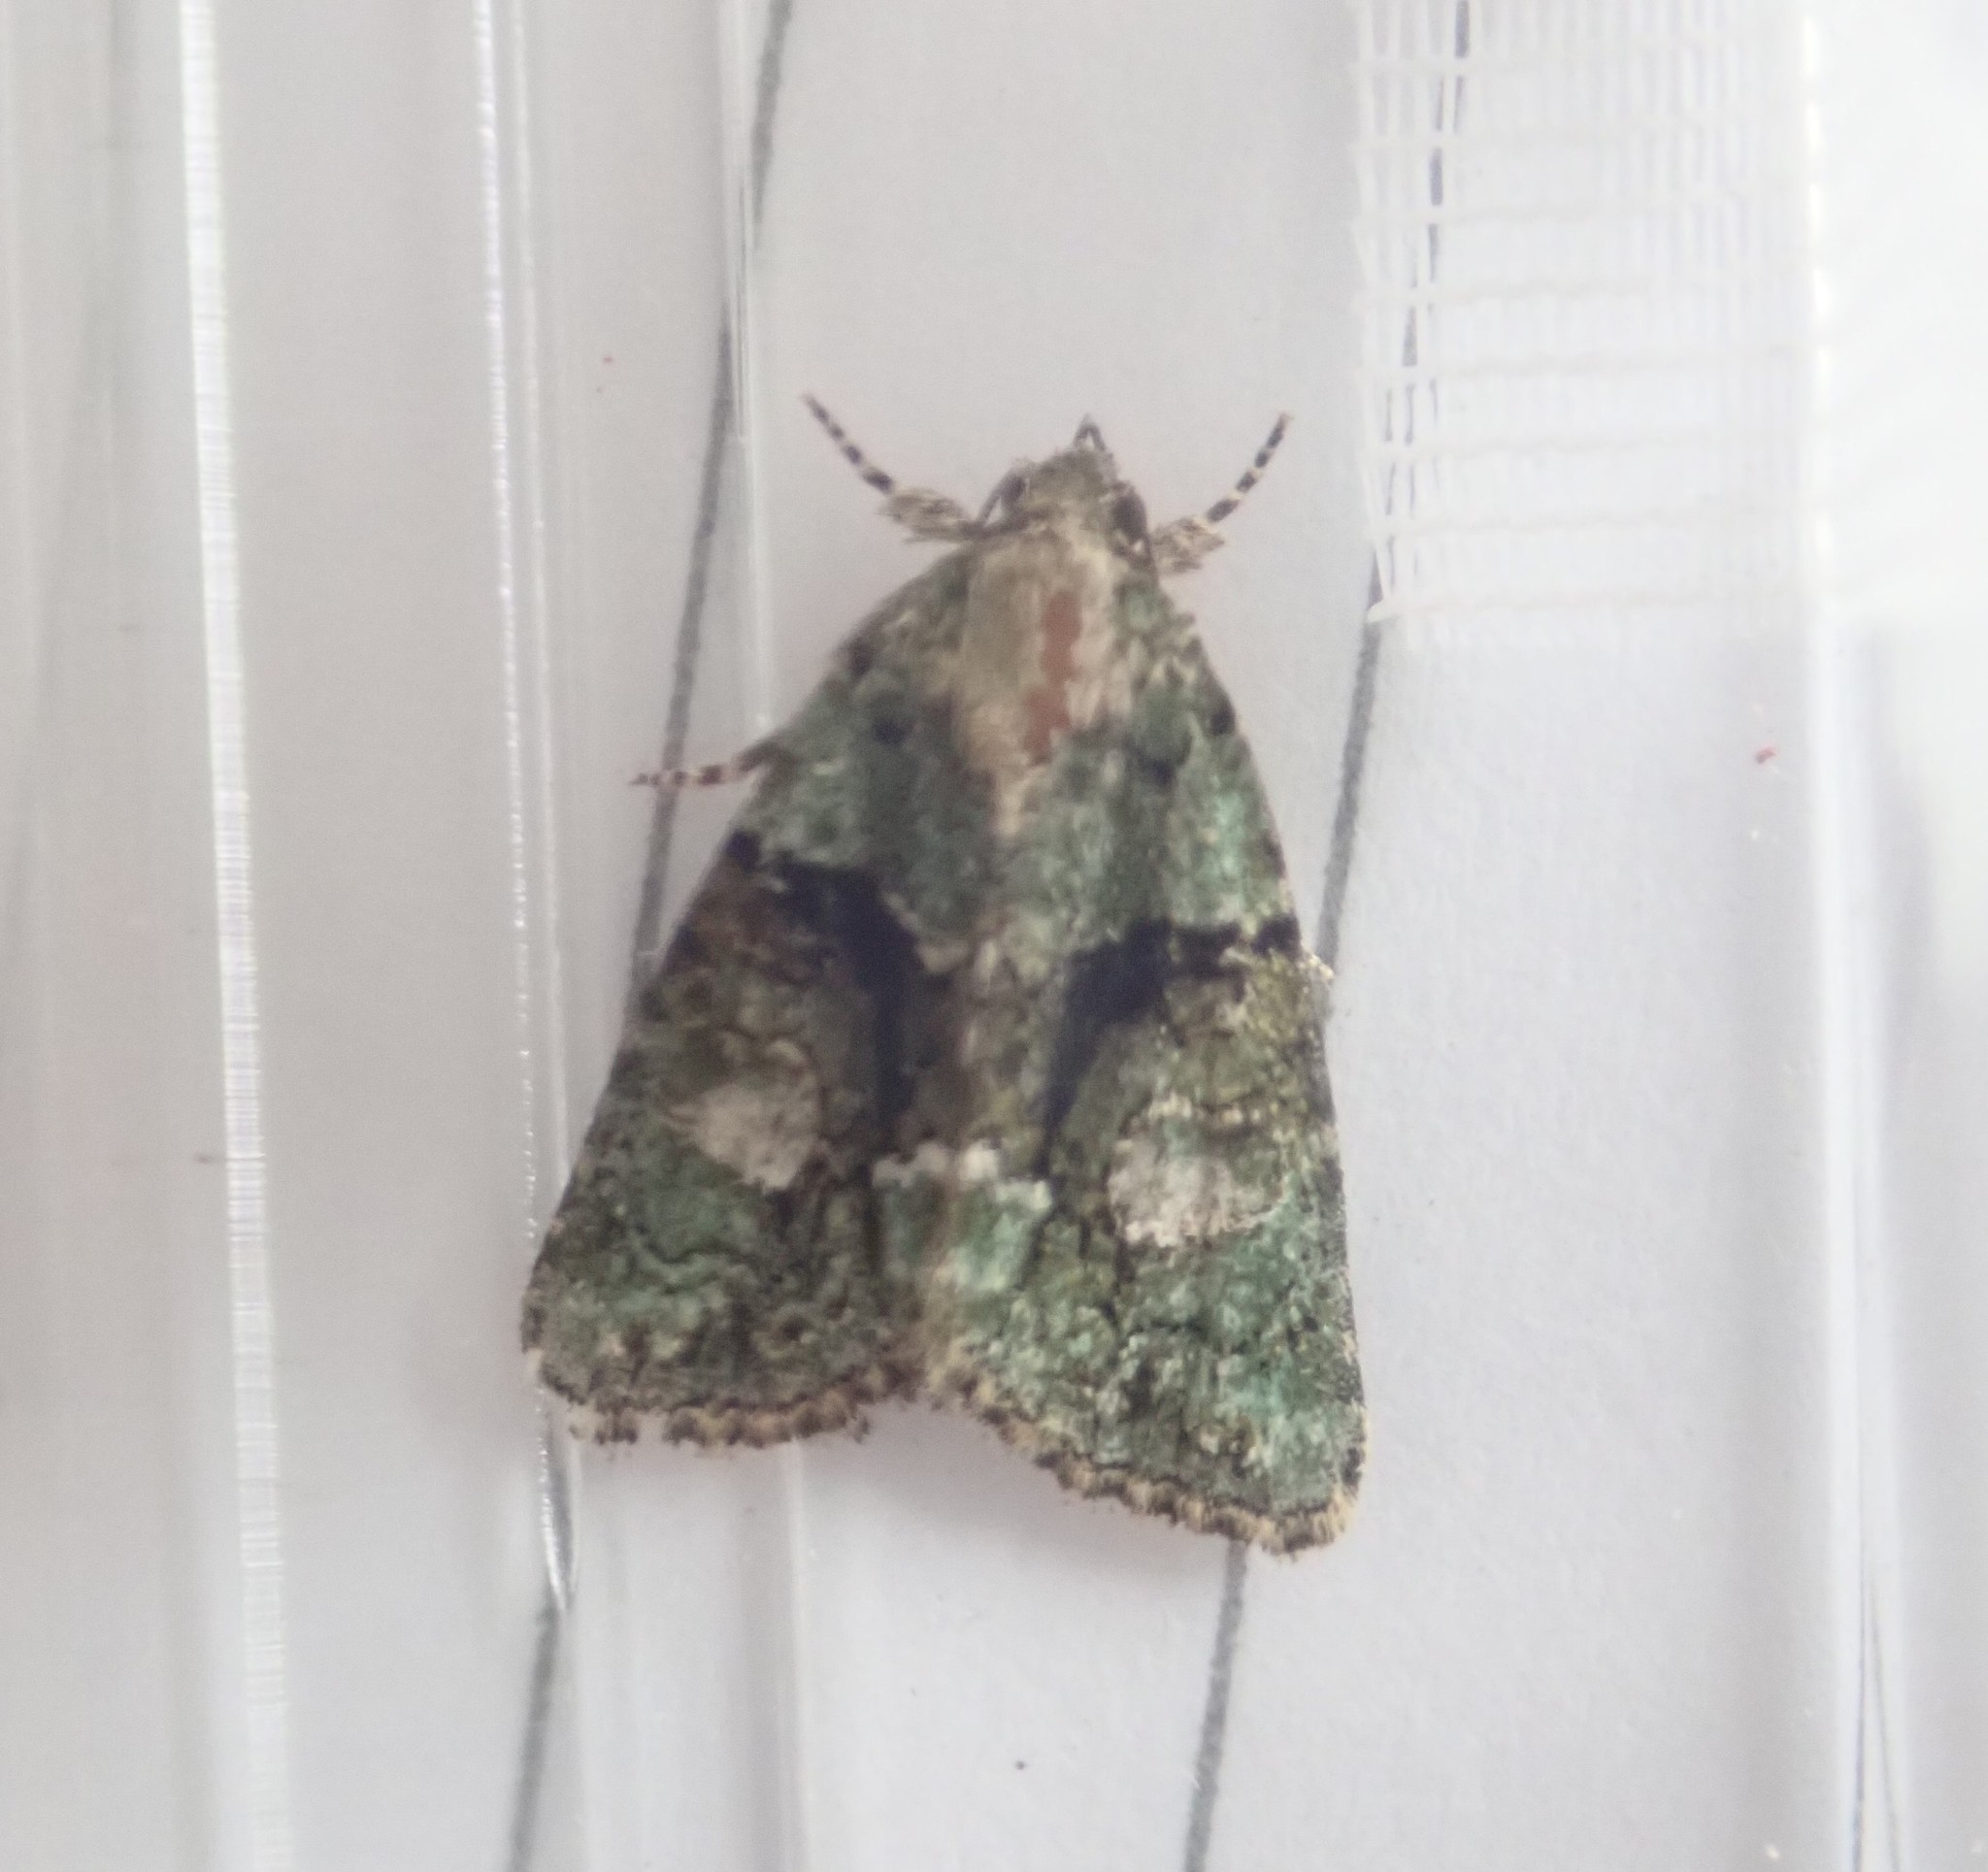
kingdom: Animalia
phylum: Arthropoda
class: Insecta
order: Lepidoptera
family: Noctuidae
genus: Cryphia
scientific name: Cryphia algae
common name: Tree-lichen beauty
